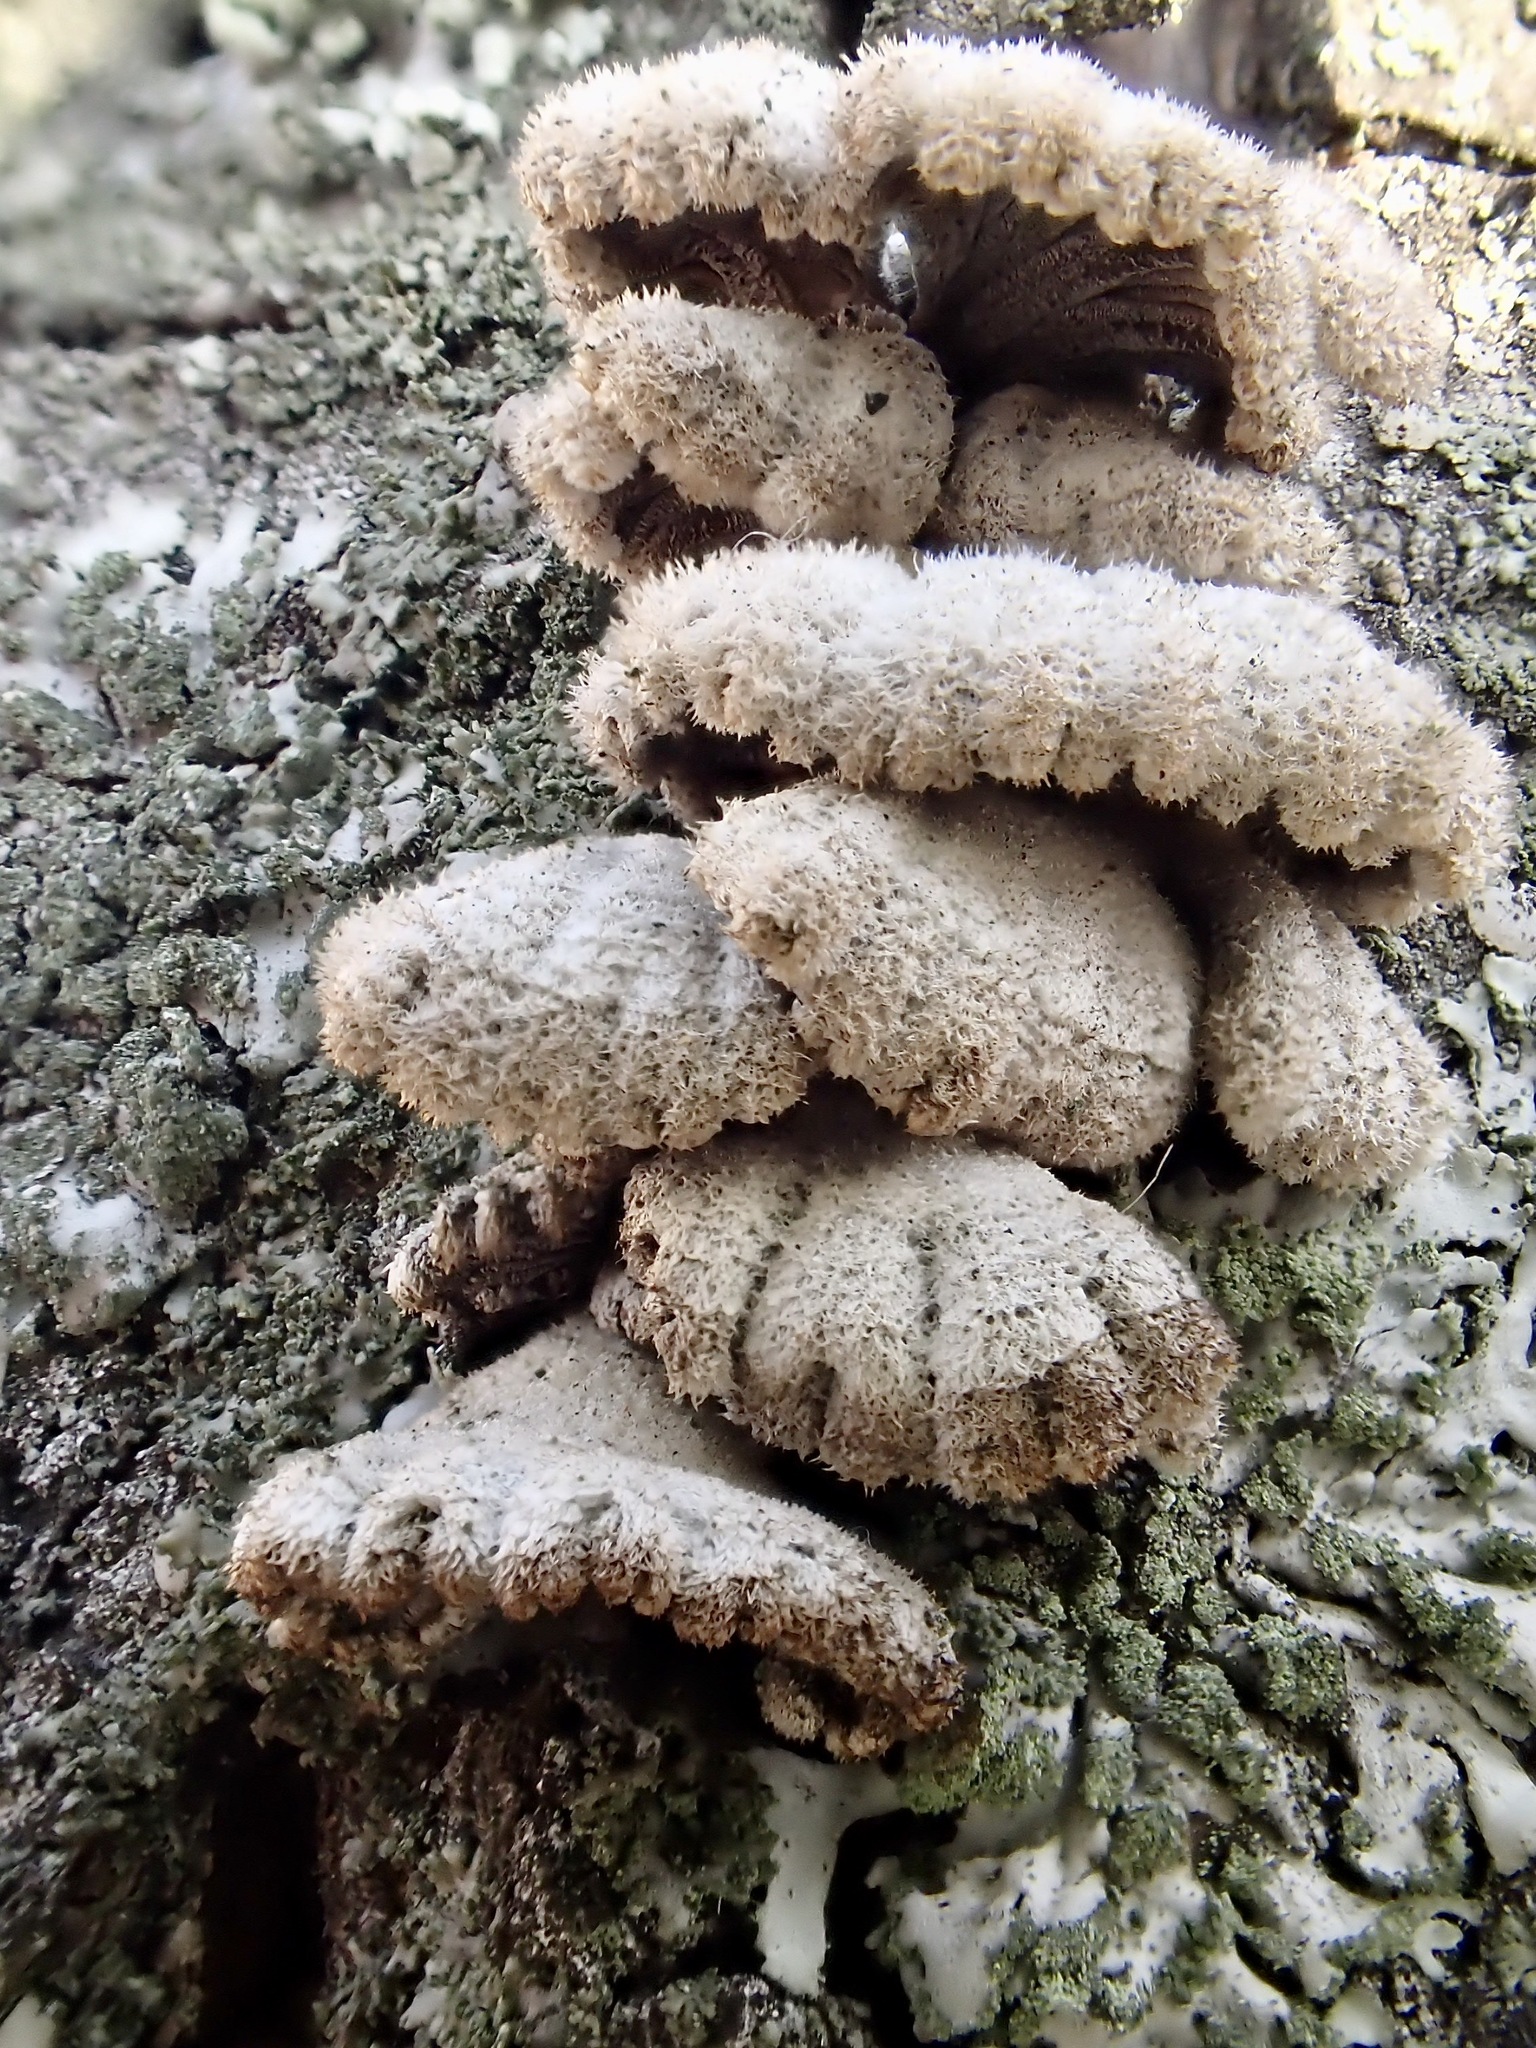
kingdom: Fungi
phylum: Basidiomycota
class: Agaricomycetes
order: Agaricales
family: Schizophyllaceae
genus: Schizophyllum
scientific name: Schizophyllum commune
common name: Common porecrust
